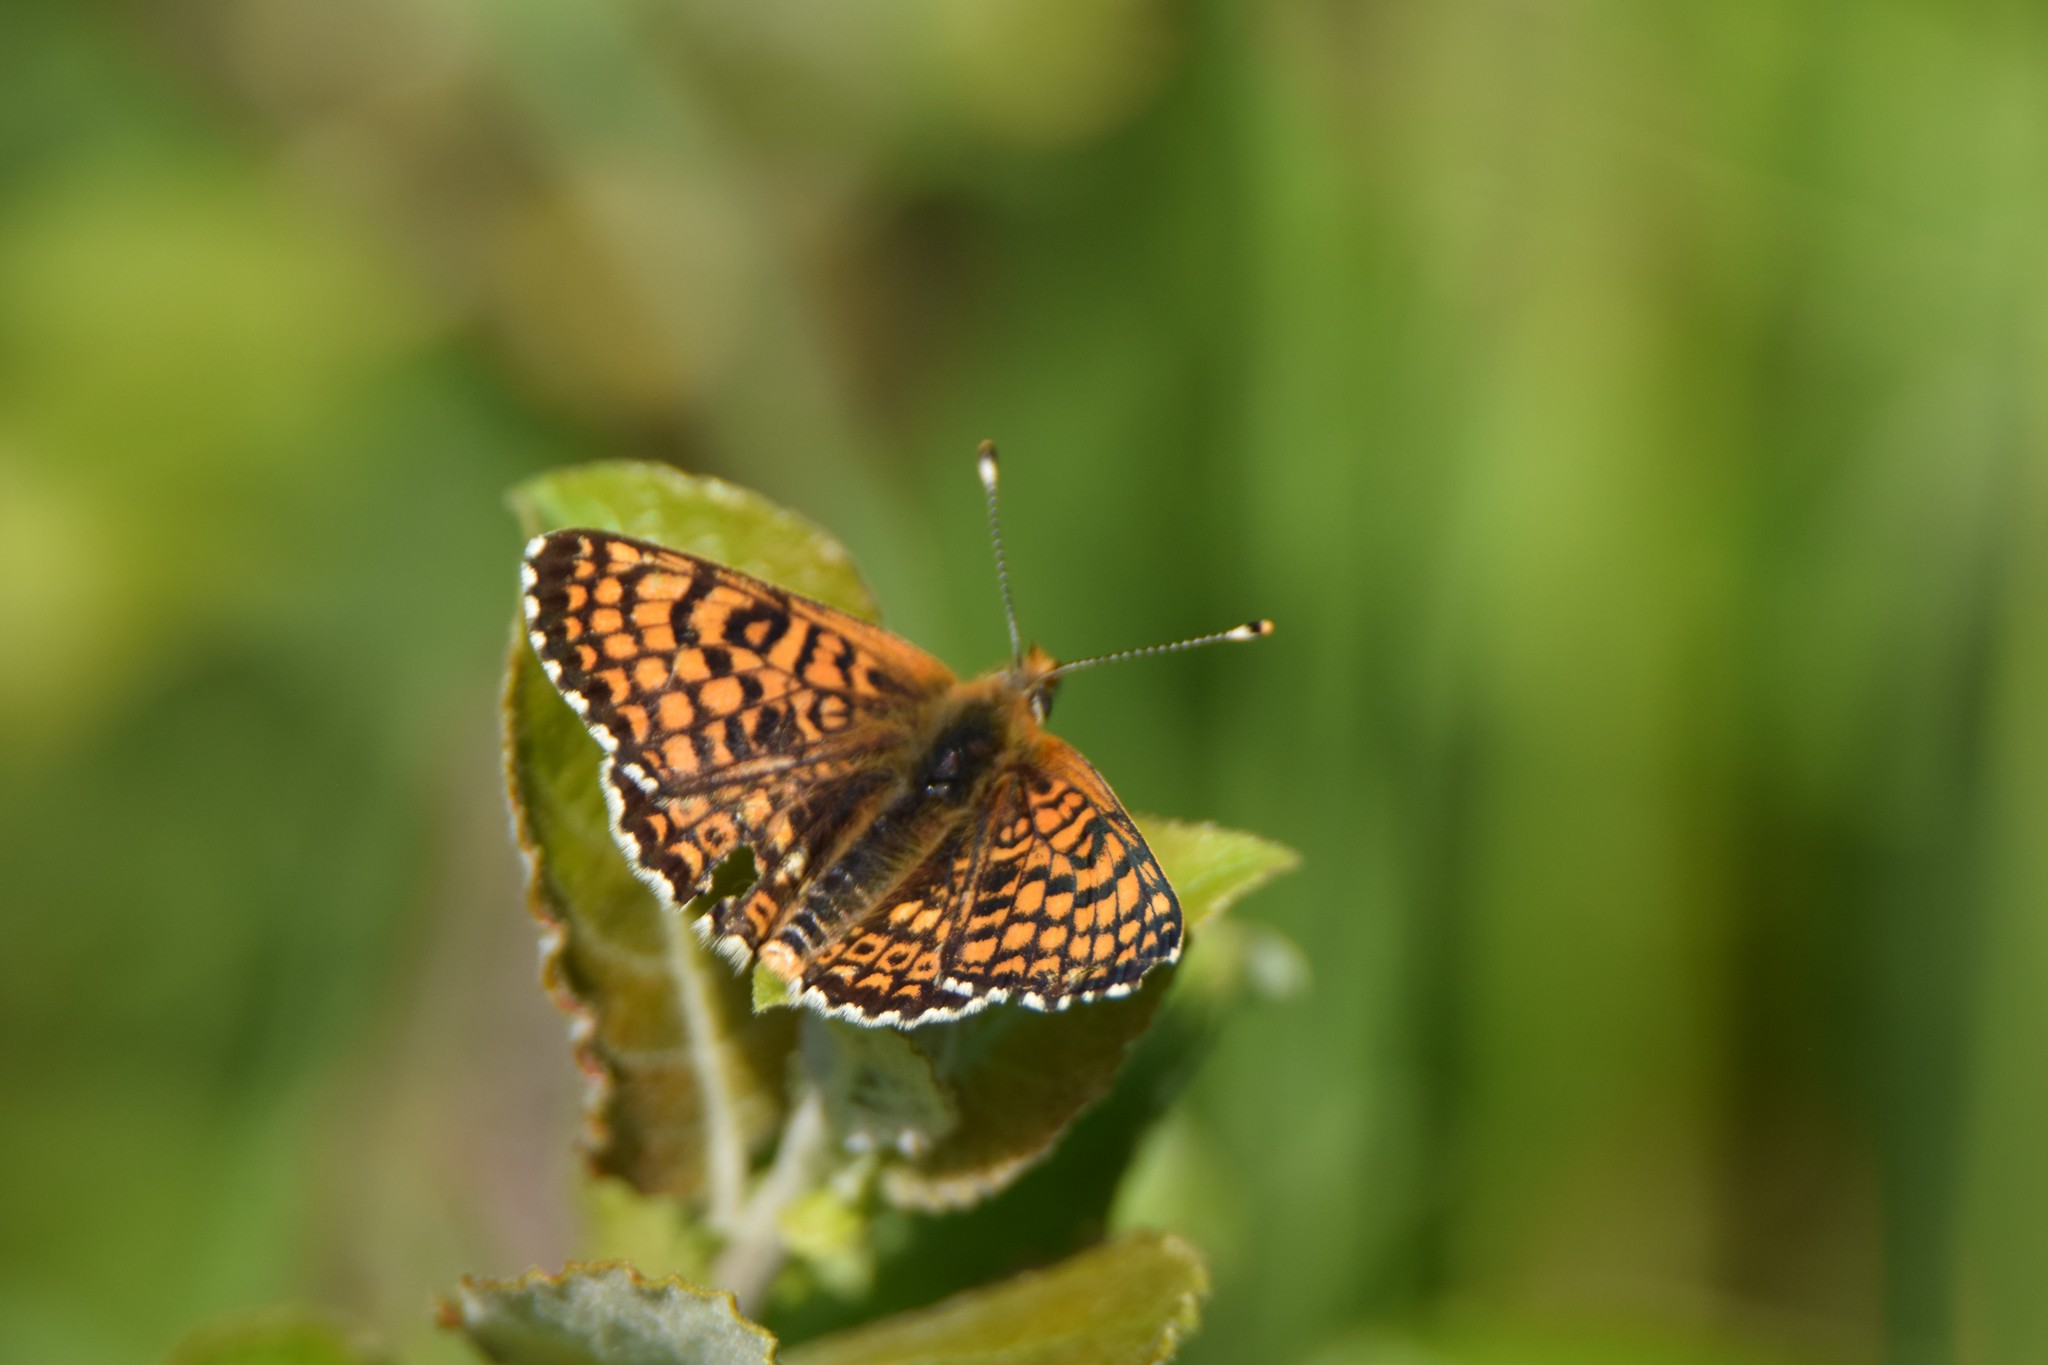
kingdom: Animalia
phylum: Arthropoda
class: Insecta
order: Lepidoptera
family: Nymphalidae
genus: Melitaea
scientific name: Melitaea cinxia
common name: Glanville fritillary
